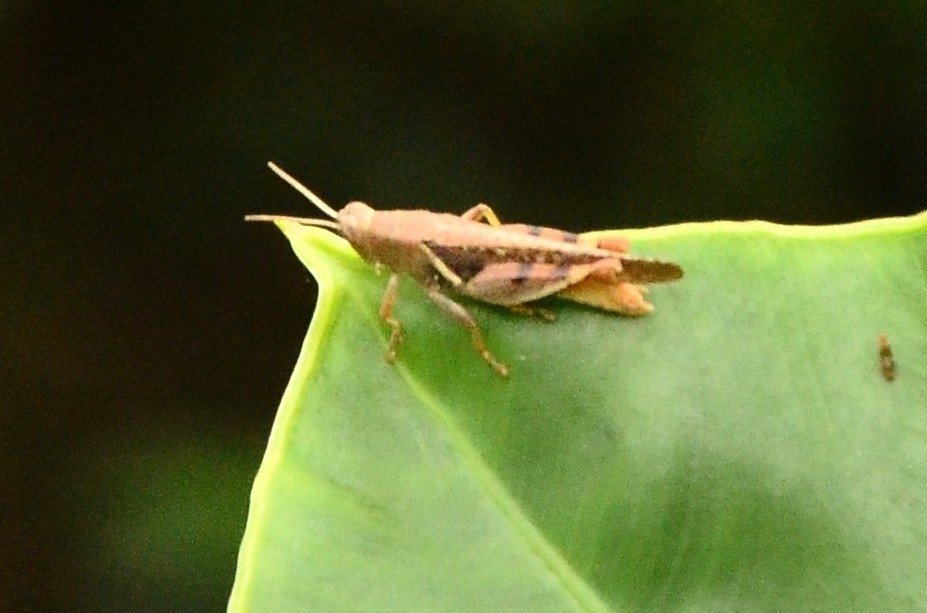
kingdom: Animalia
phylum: Arthropoda
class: Insecta
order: Orthoptera
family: Acrididae
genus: Diabolocatantops
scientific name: Diabolocatantops innotabilis
